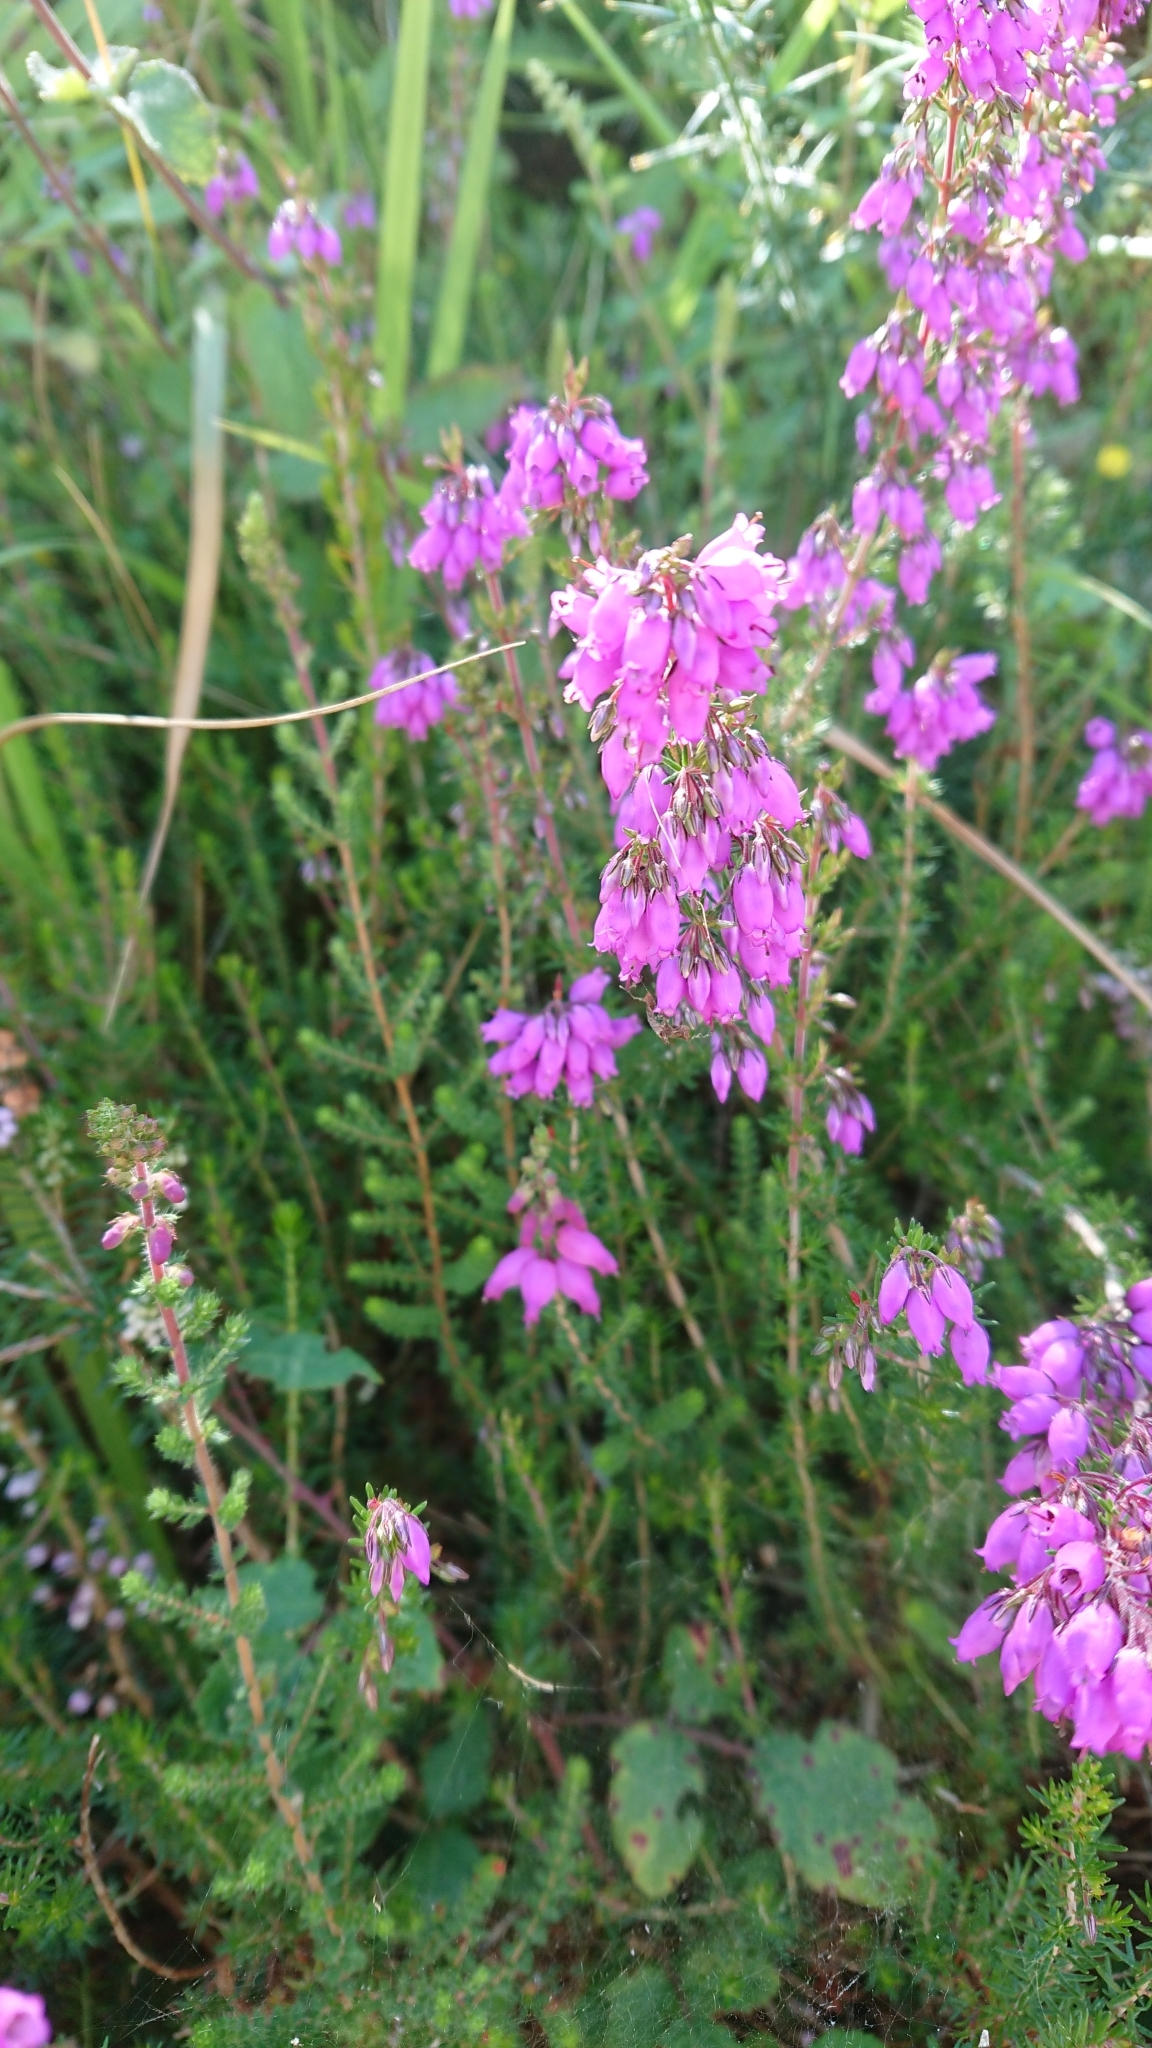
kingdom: Plantae
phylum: Tracheophyta
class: Magnoliopsida
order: Ericales
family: Ericaceae
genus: Erica
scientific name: Erica cinerea
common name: Bell heather
